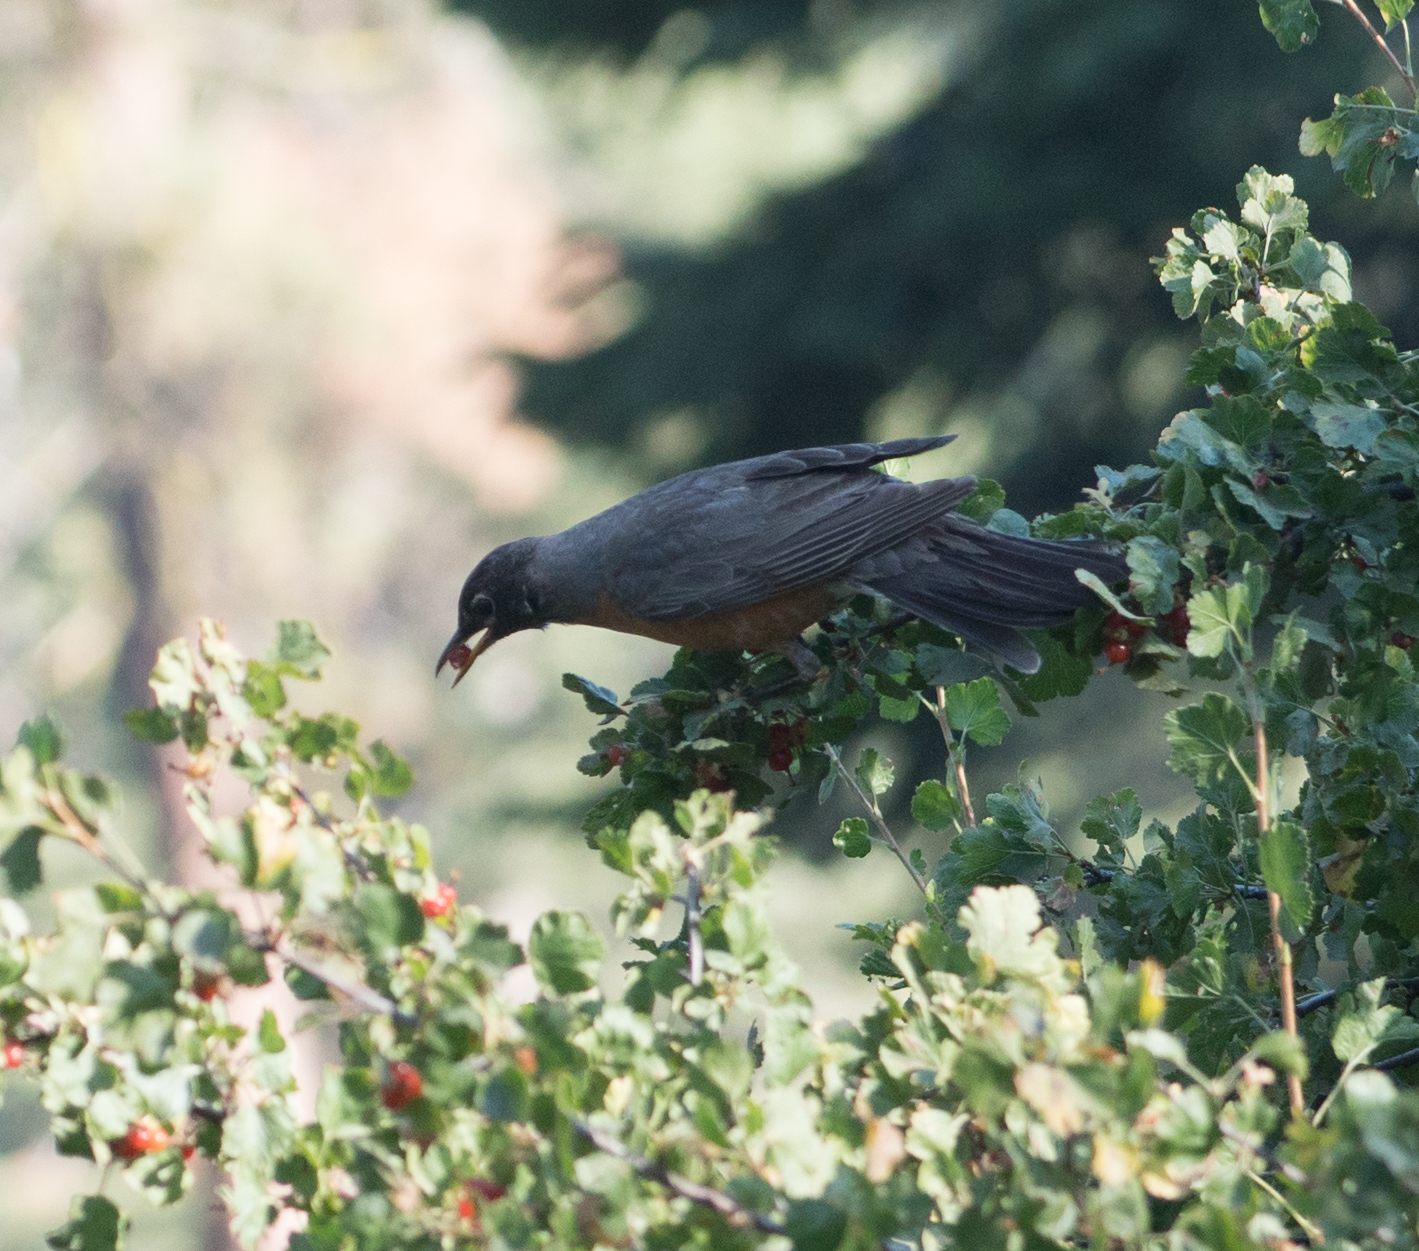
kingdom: Animalia
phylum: Chordata
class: Aves
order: Passeriformes
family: Turdidae
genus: Turdus
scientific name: Turdus migratorius
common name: American robin
